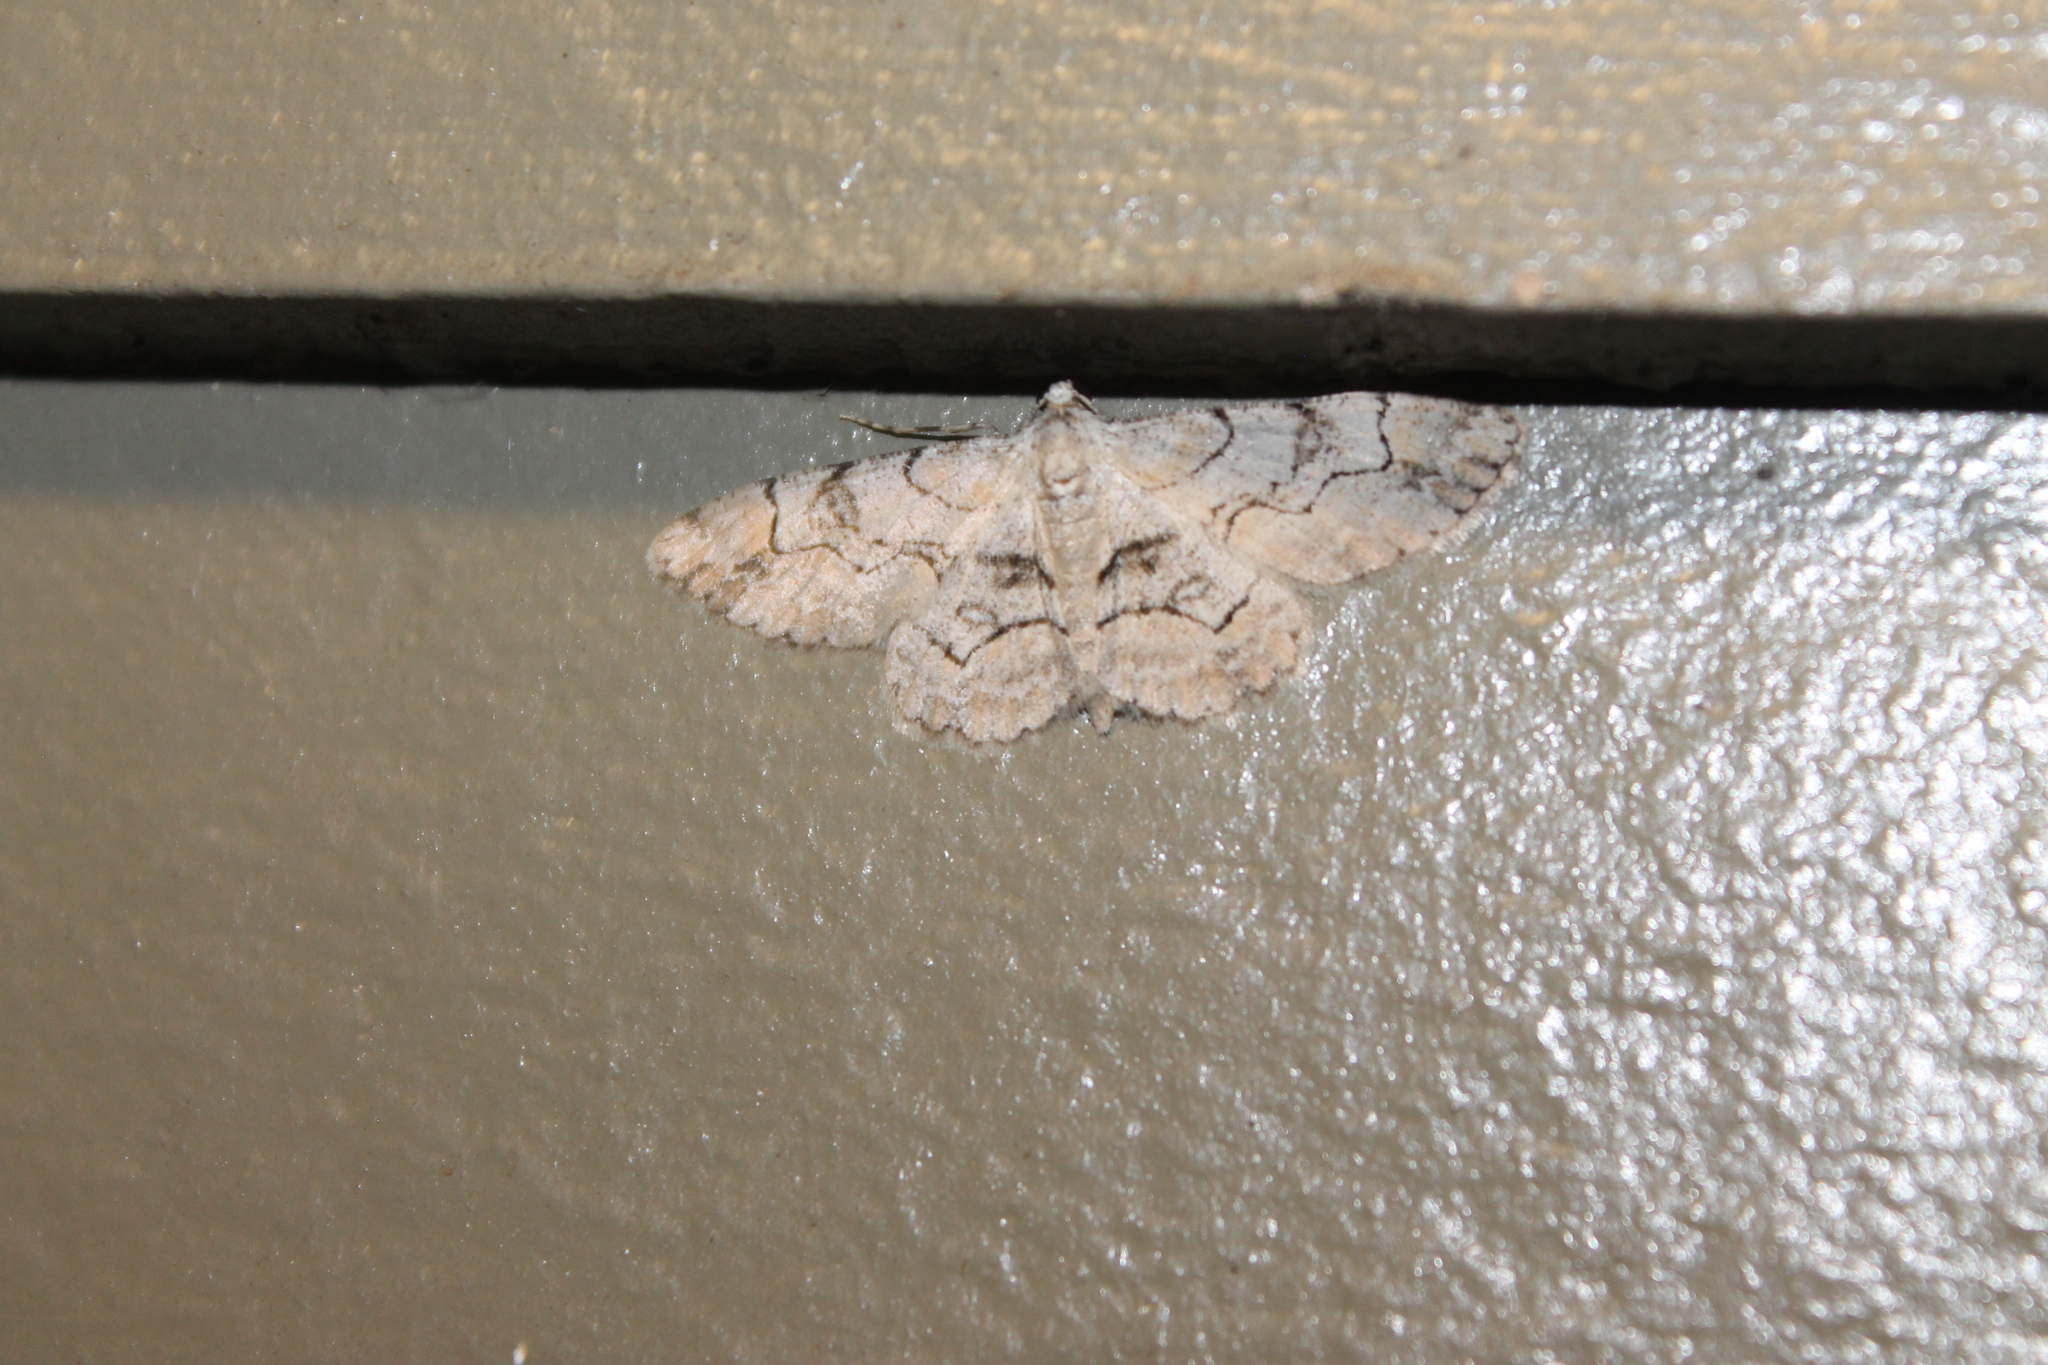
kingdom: Animalia
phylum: Arthropoda
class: Insecta
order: Lepidoptera
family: Geometridae
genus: Iridopsis
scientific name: Iridopsis larvaria
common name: Bent-line gray
